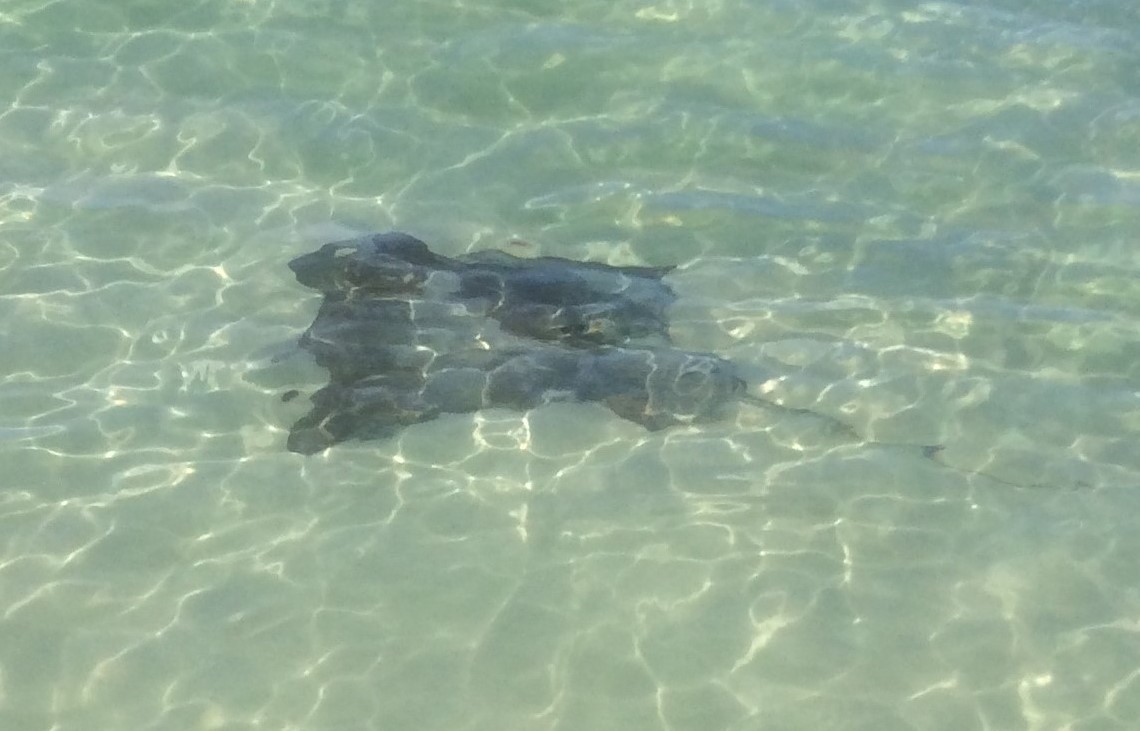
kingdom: Animalia
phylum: Chordata
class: Elasmobranchii
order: Myliobatiformes
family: Myliobatidae
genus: Myliobatis
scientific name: Myliobatis tenuicaudatus
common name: Eagle ray
